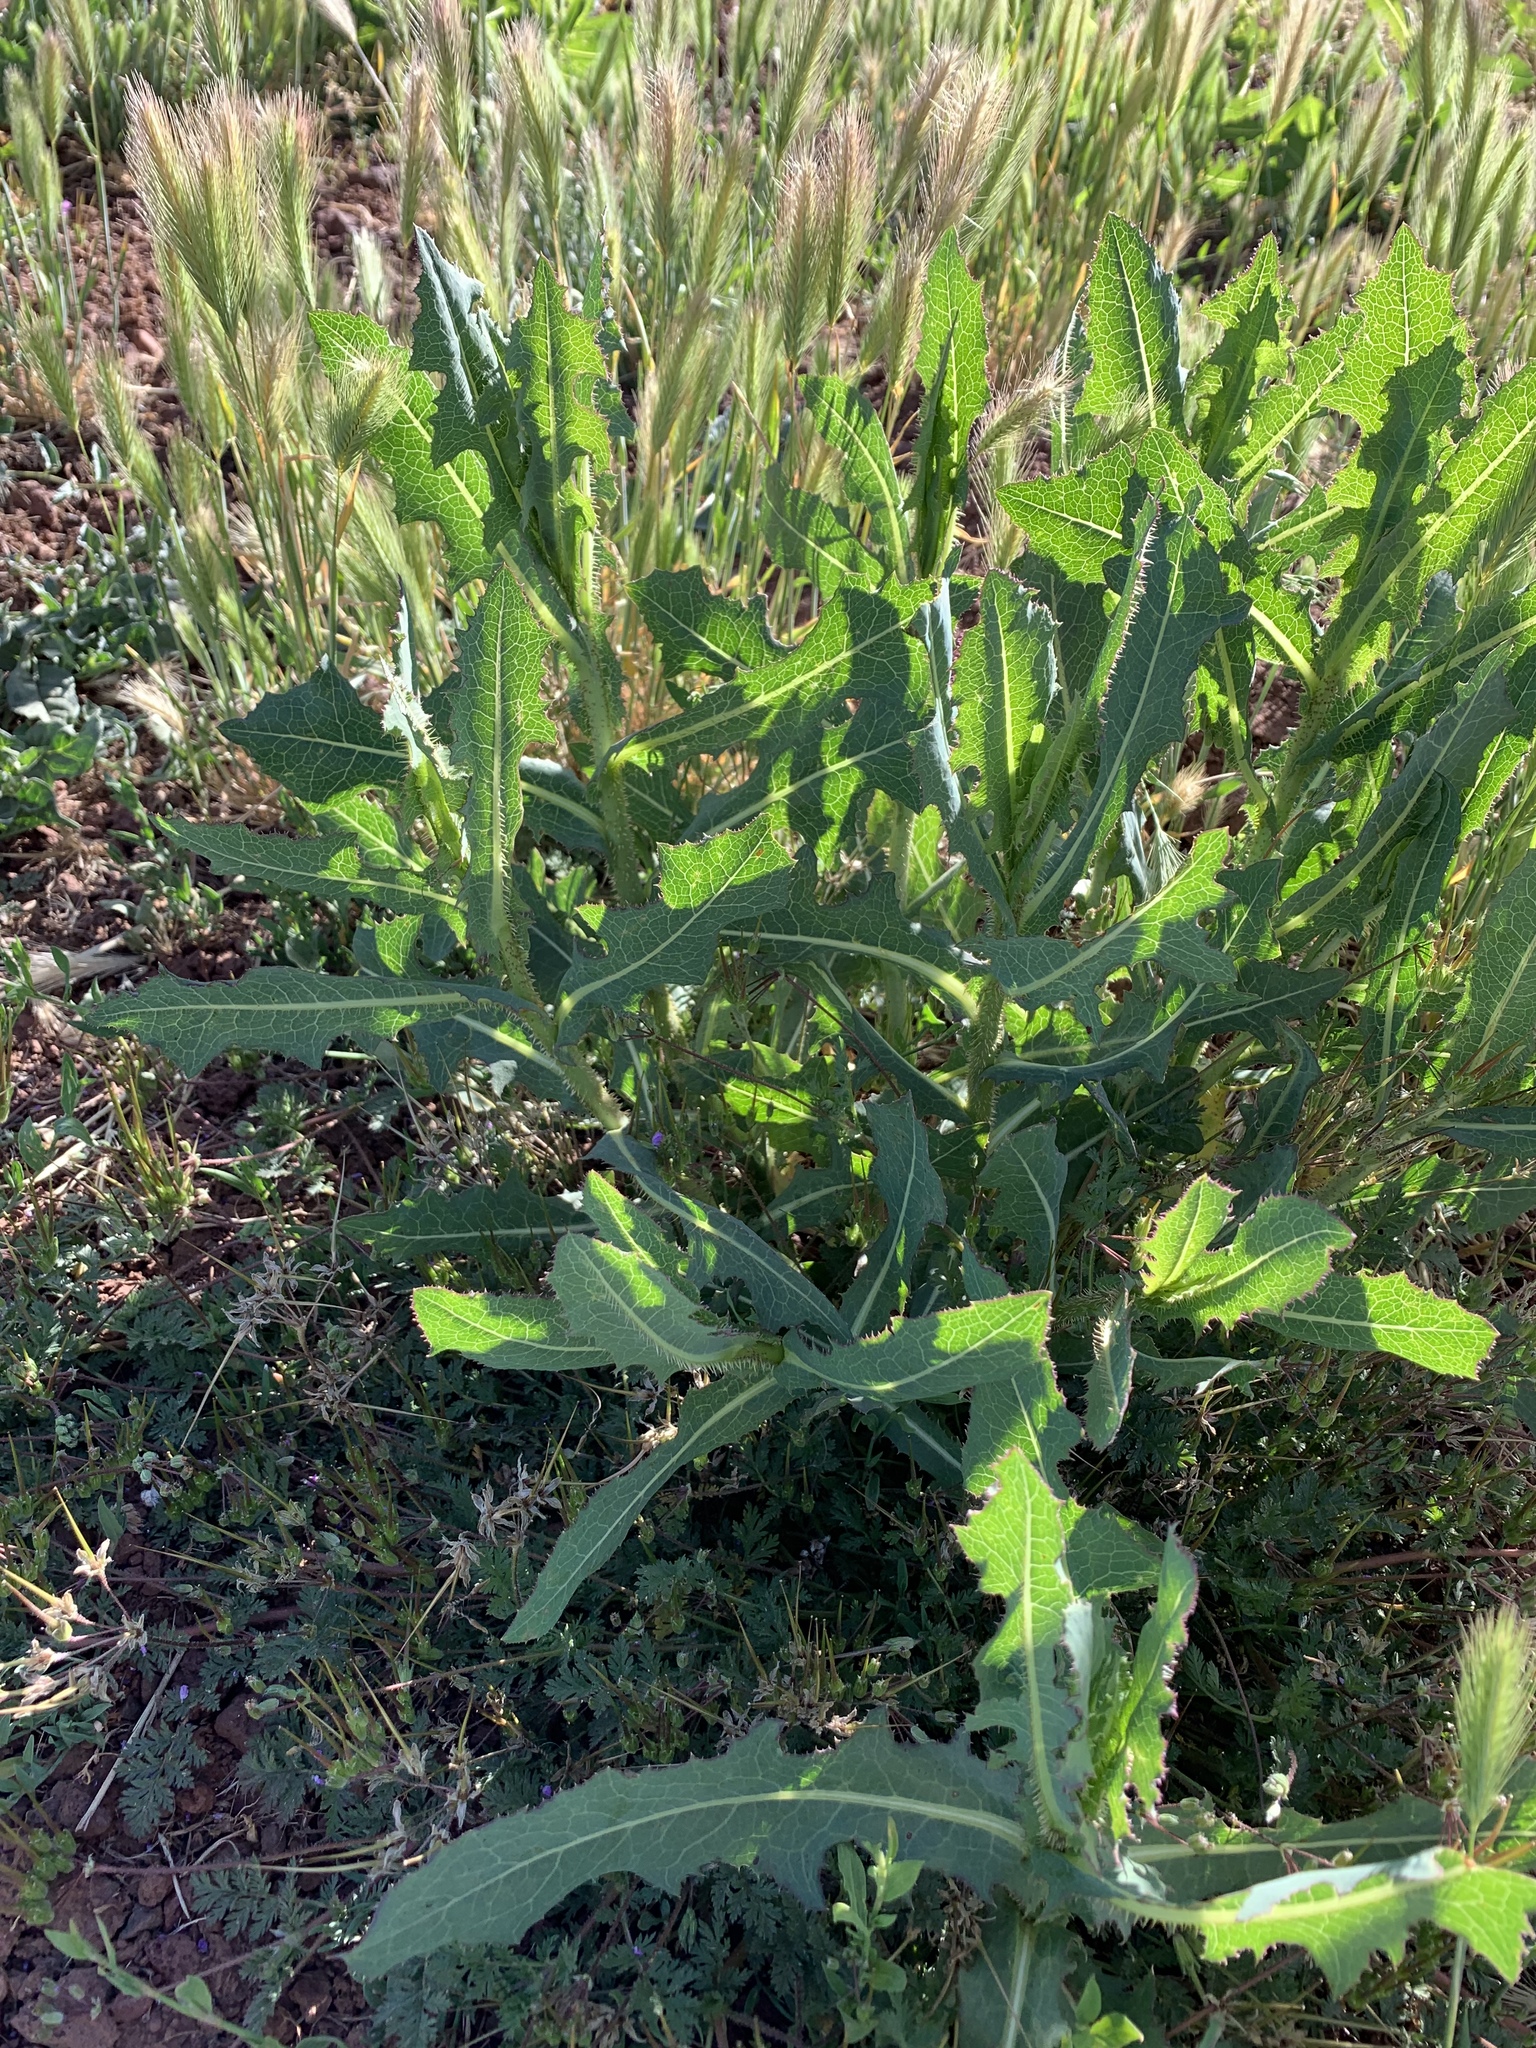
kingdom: Plantae
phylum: Tracheophyta
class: Magnoliopsida
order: Asterales
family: Asteraceae
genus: Lactuca
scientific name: Lactuca serriola
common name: Prickly lettuce
